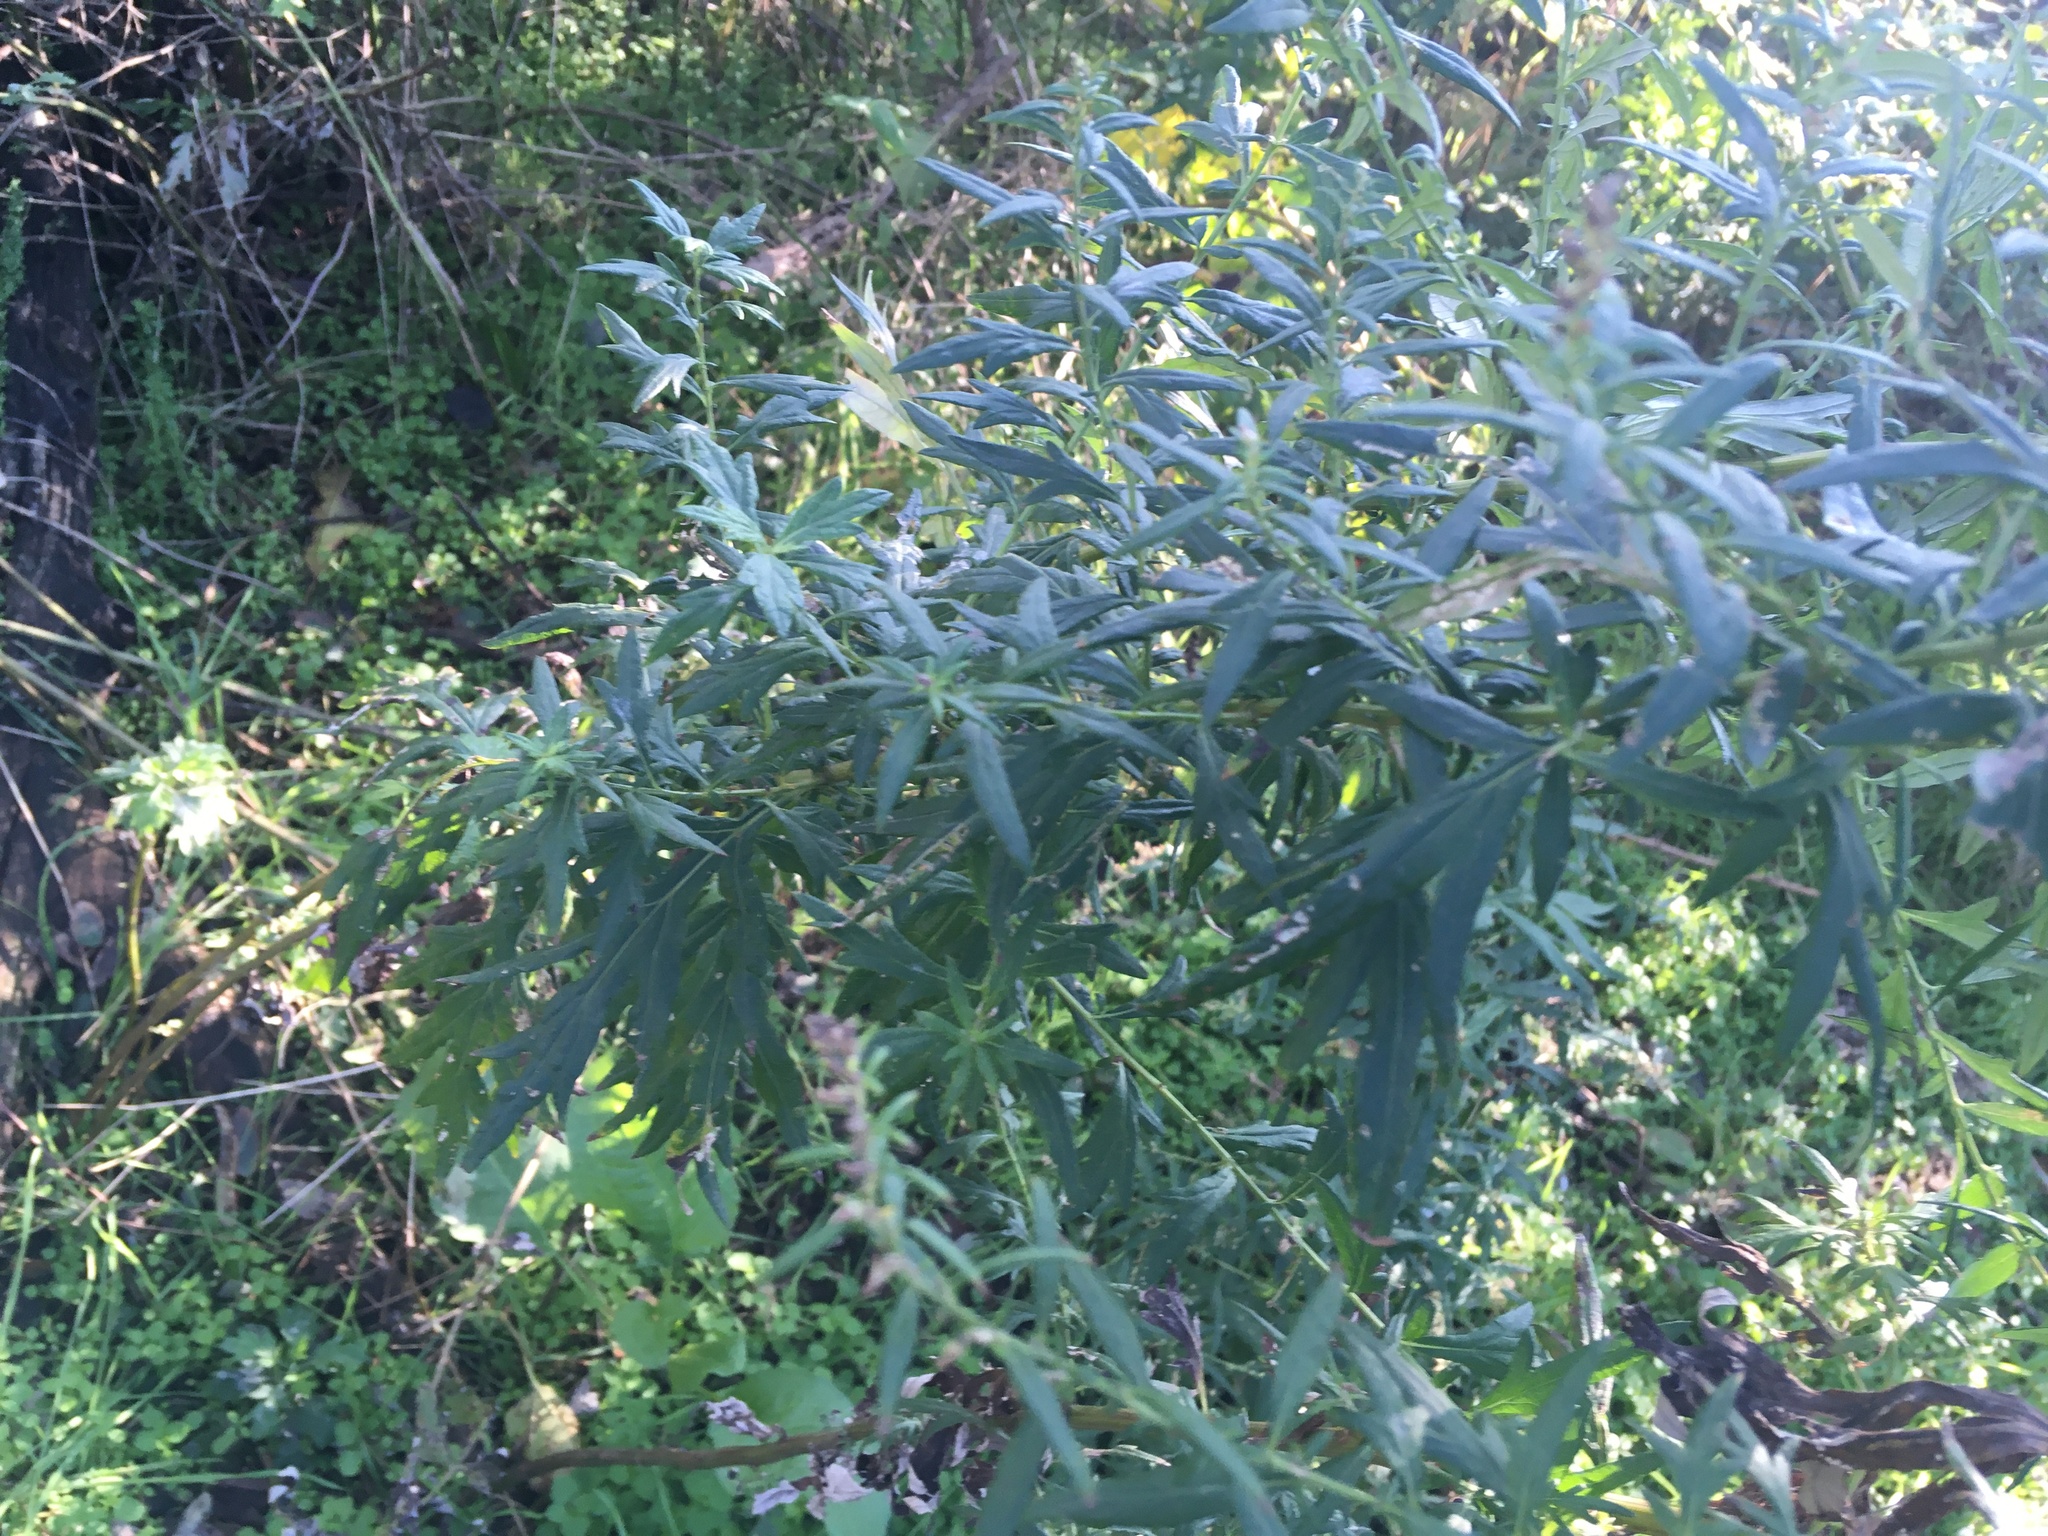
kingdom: Plantae
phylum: Tracheophyta
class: Magnoliopsida
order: Asterales
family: Asteraceae
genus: Artemisia
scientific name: Artemisia vulgaris
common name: Mugwort
